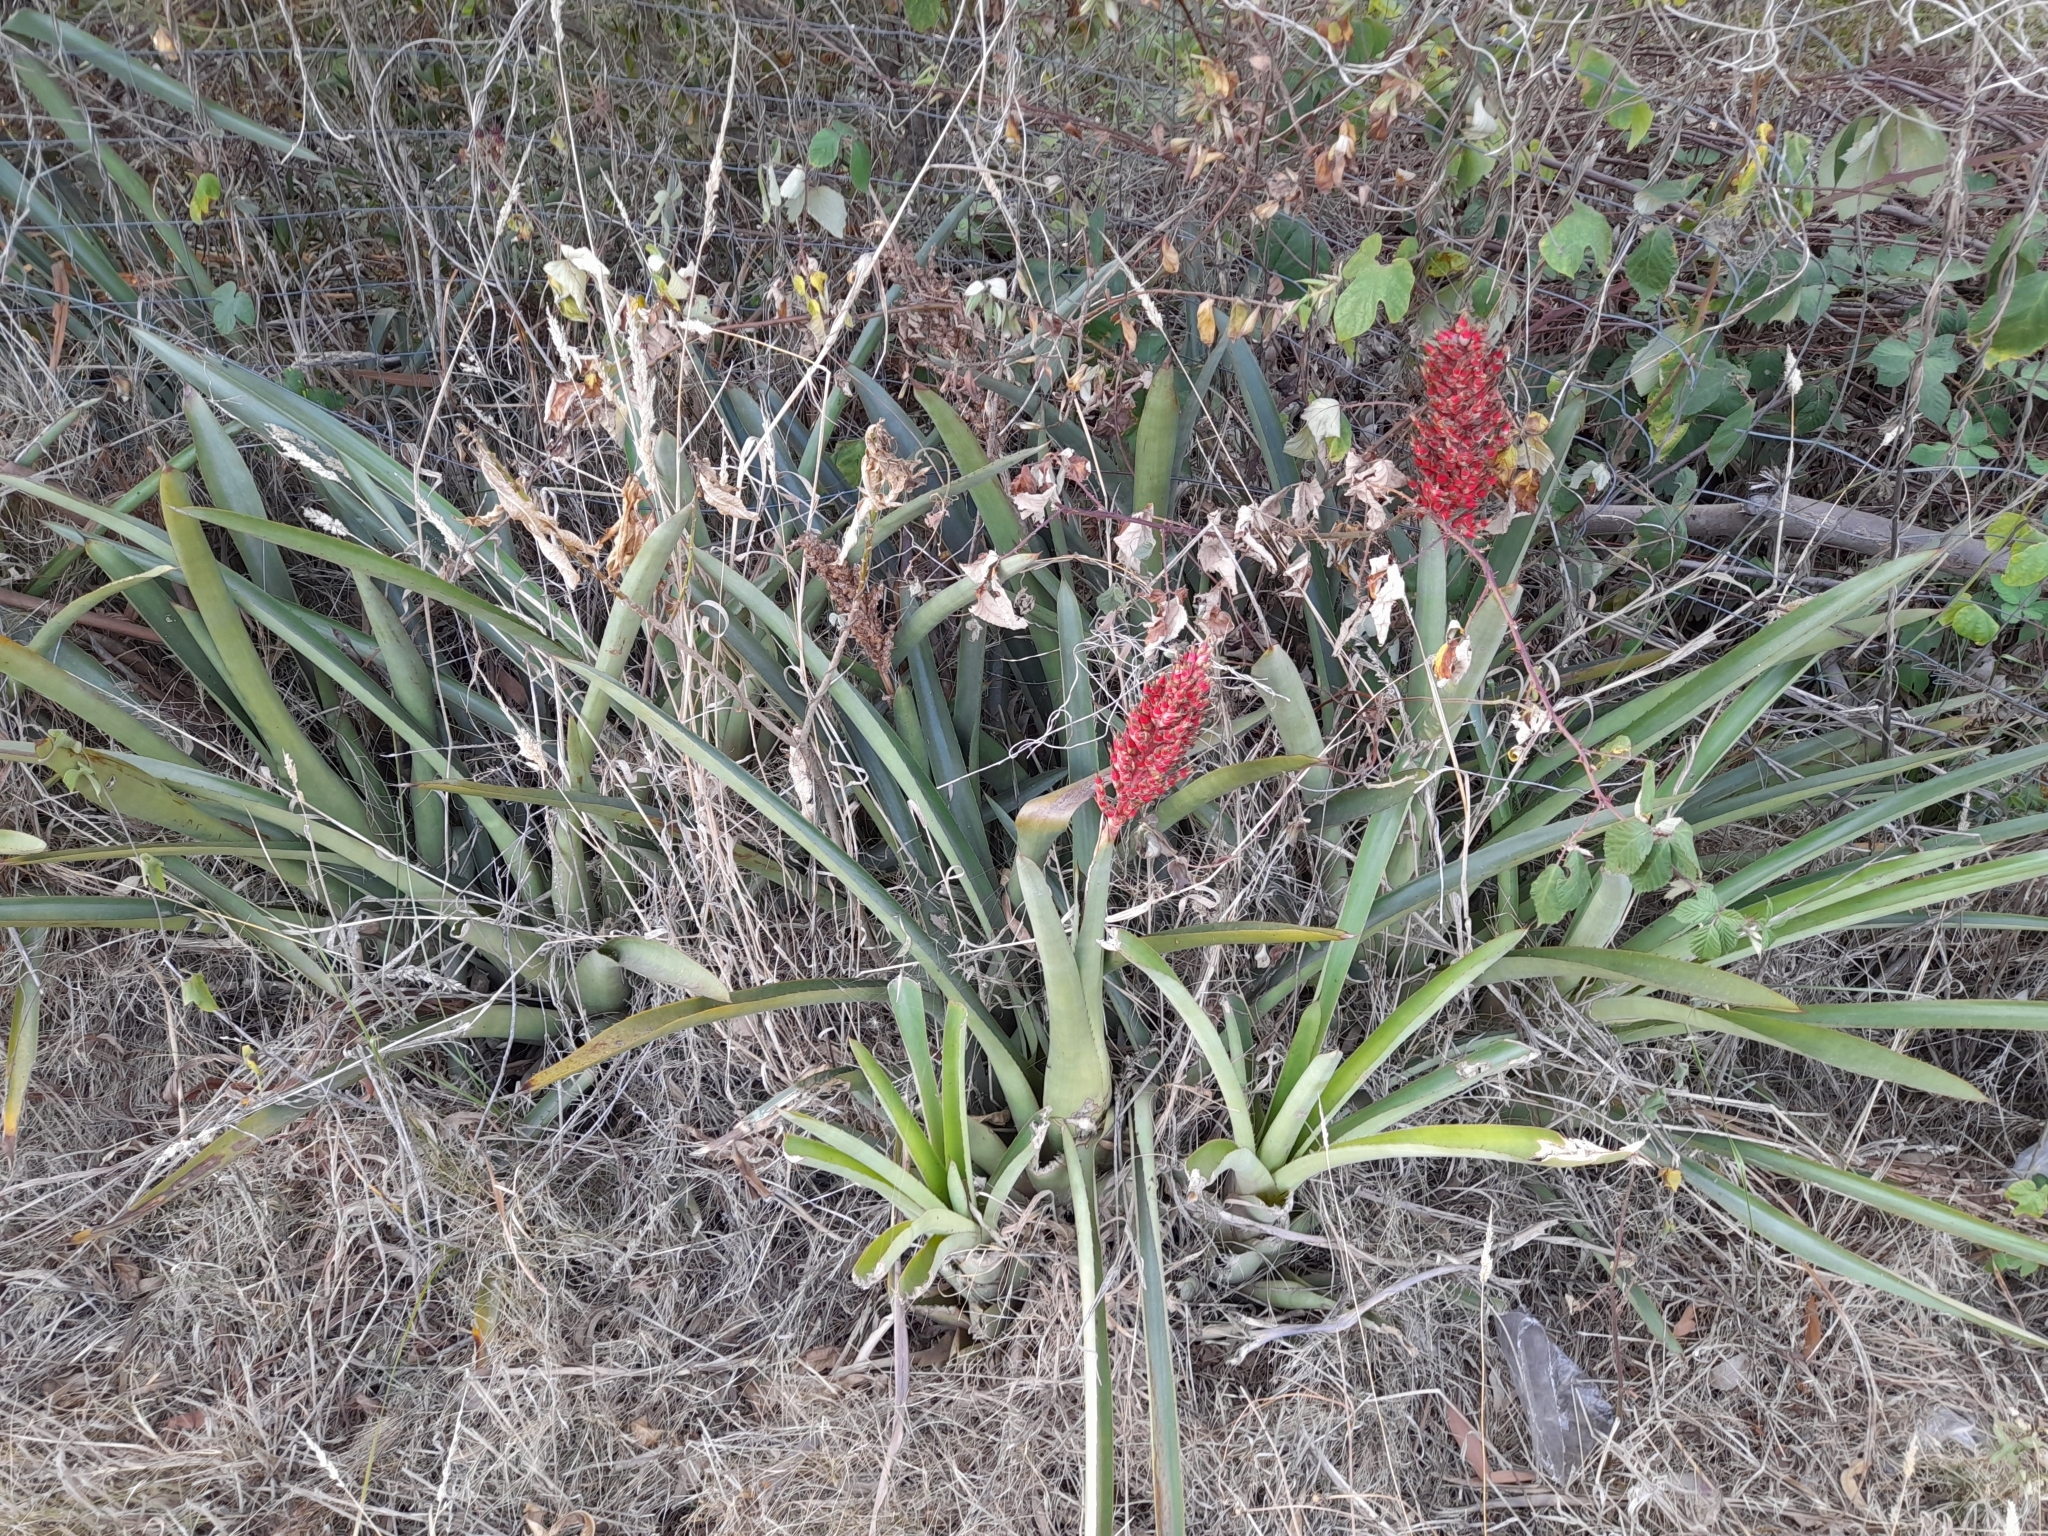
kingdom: Plantae
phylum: Tracheophyta
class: Liliopsida
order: Poales
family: Bromeliaceae
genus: Aechmea
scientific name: Aechmea distichantha
